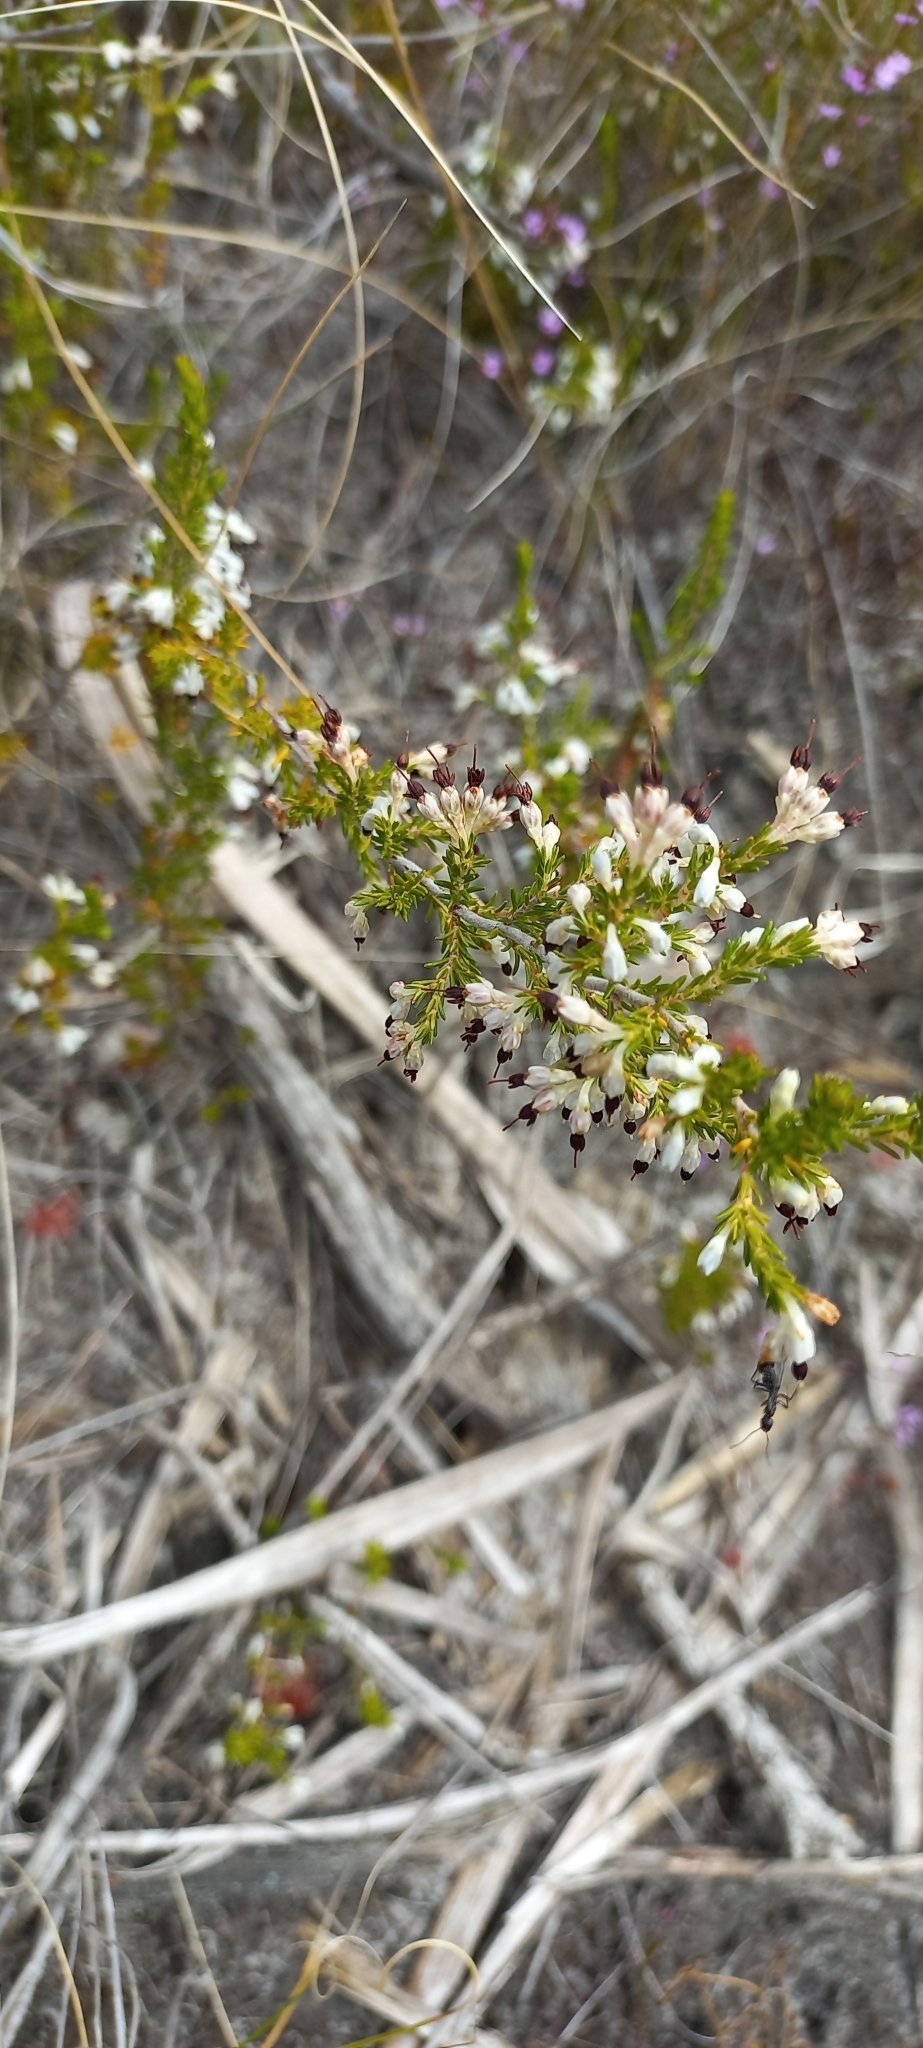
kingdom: Plantae
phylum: Tracheophyta
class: Magnoliopsida
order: Ericales
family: Ericaceae
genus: Erica
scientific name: Erica imbricata
